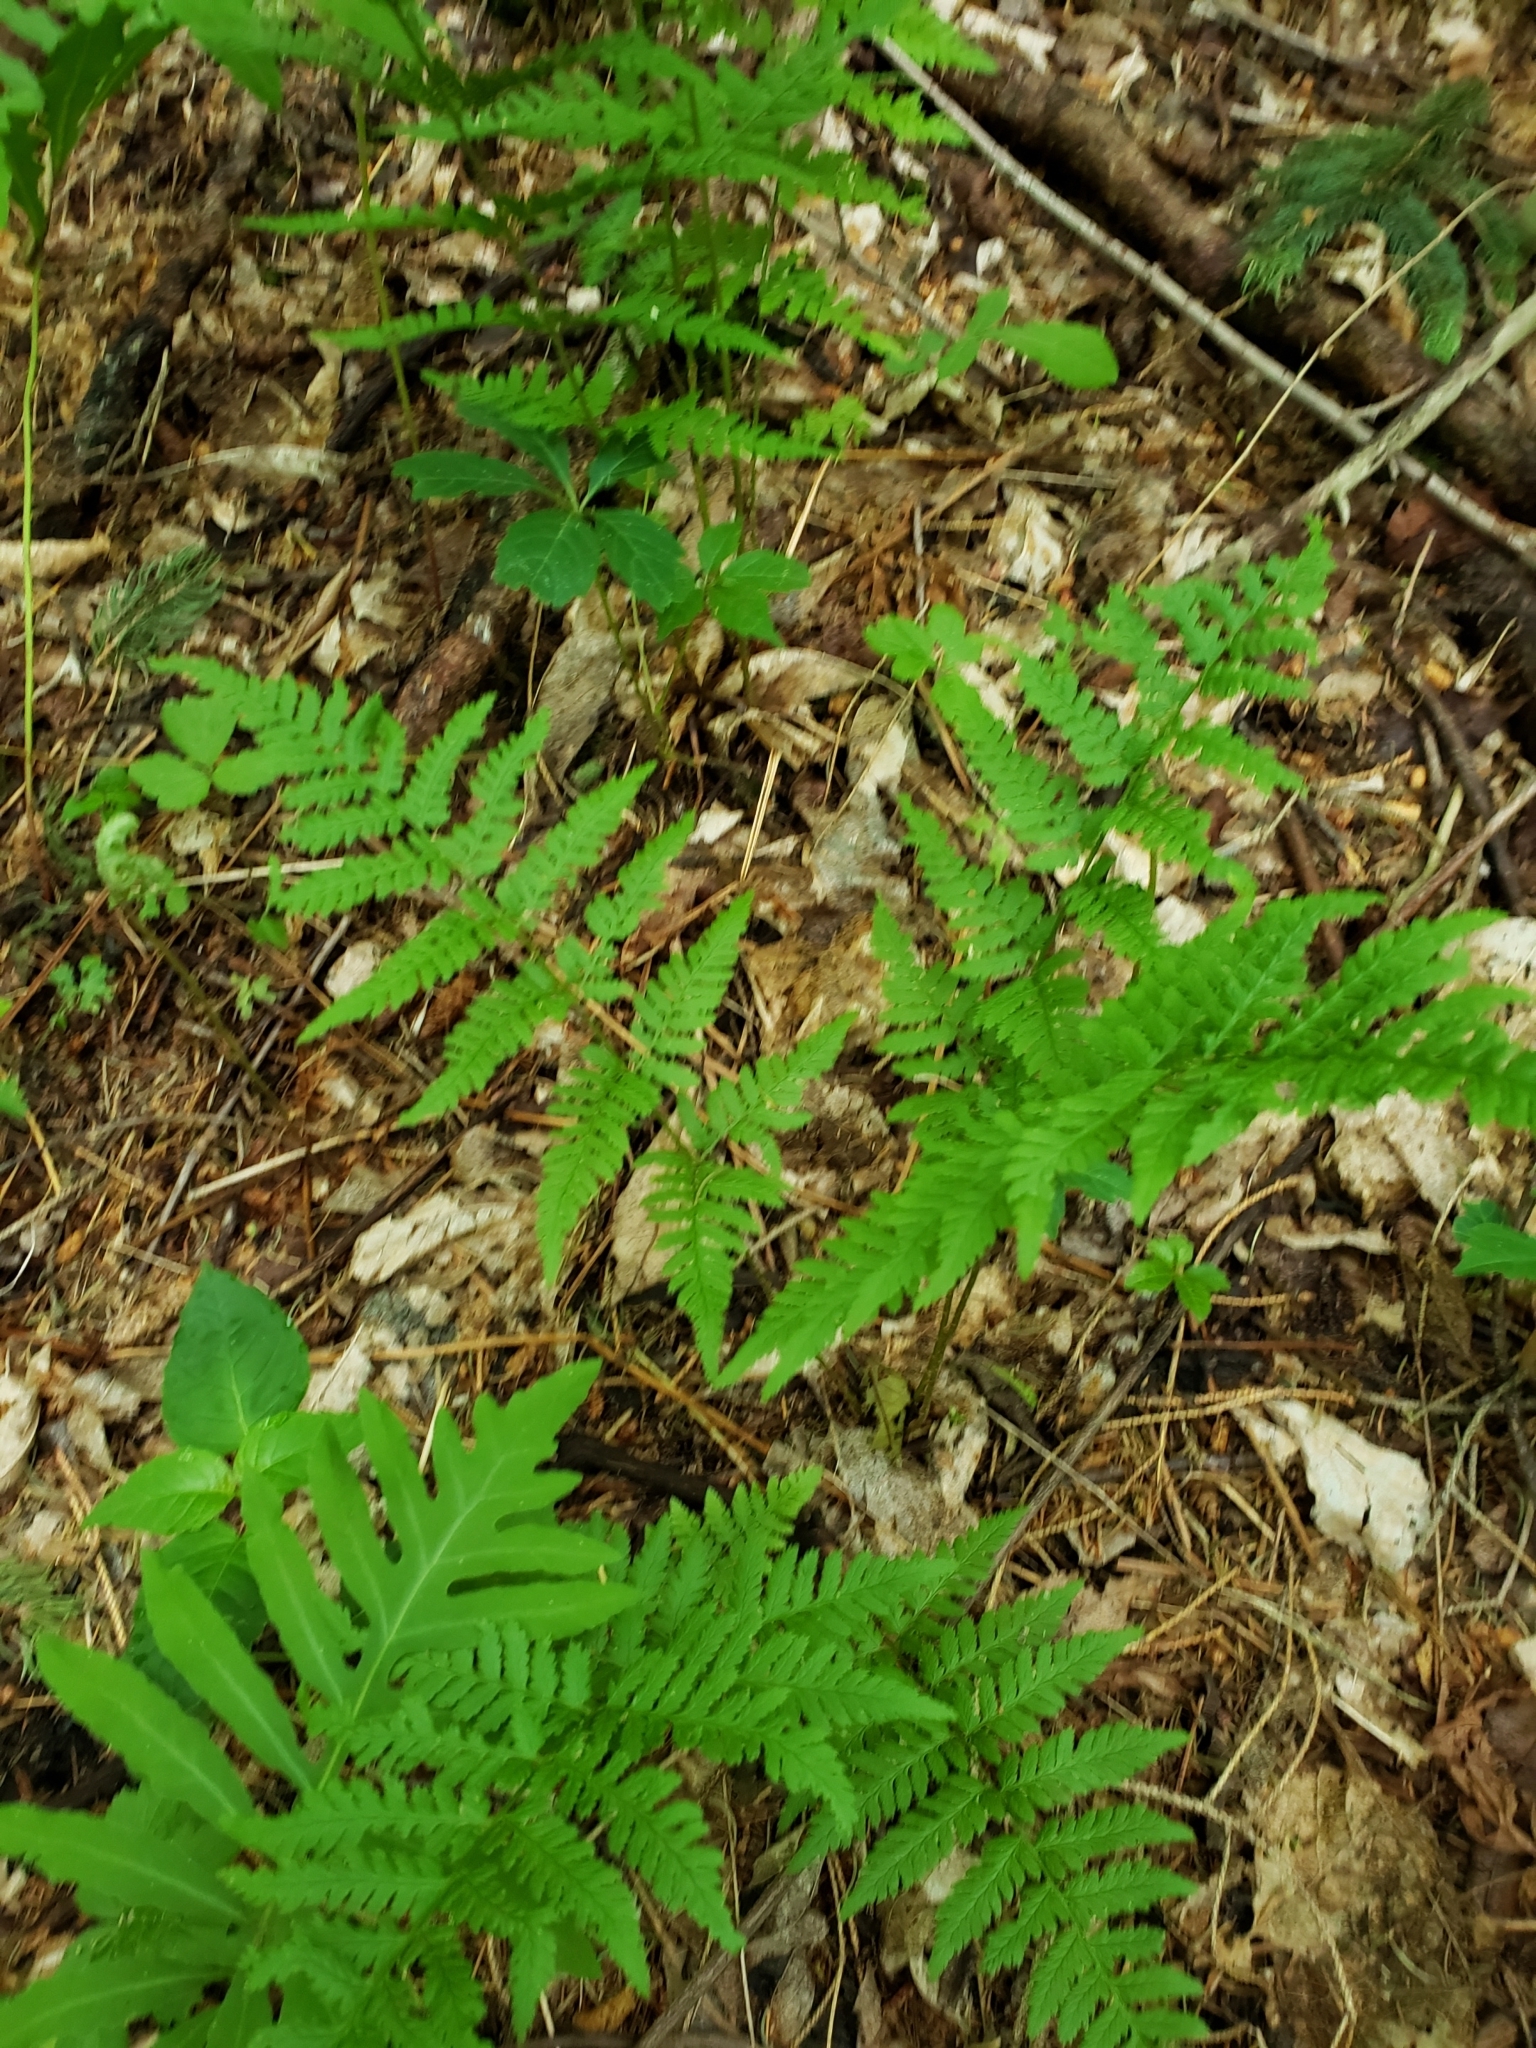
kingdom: Plantae
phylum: Tracheophyta
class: Polypodiopsida
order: Polypodiales
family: Dryopteridaceae
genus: Dryopteris
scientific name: Dryopteris carthusiana
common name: Narrow buckler-fern
